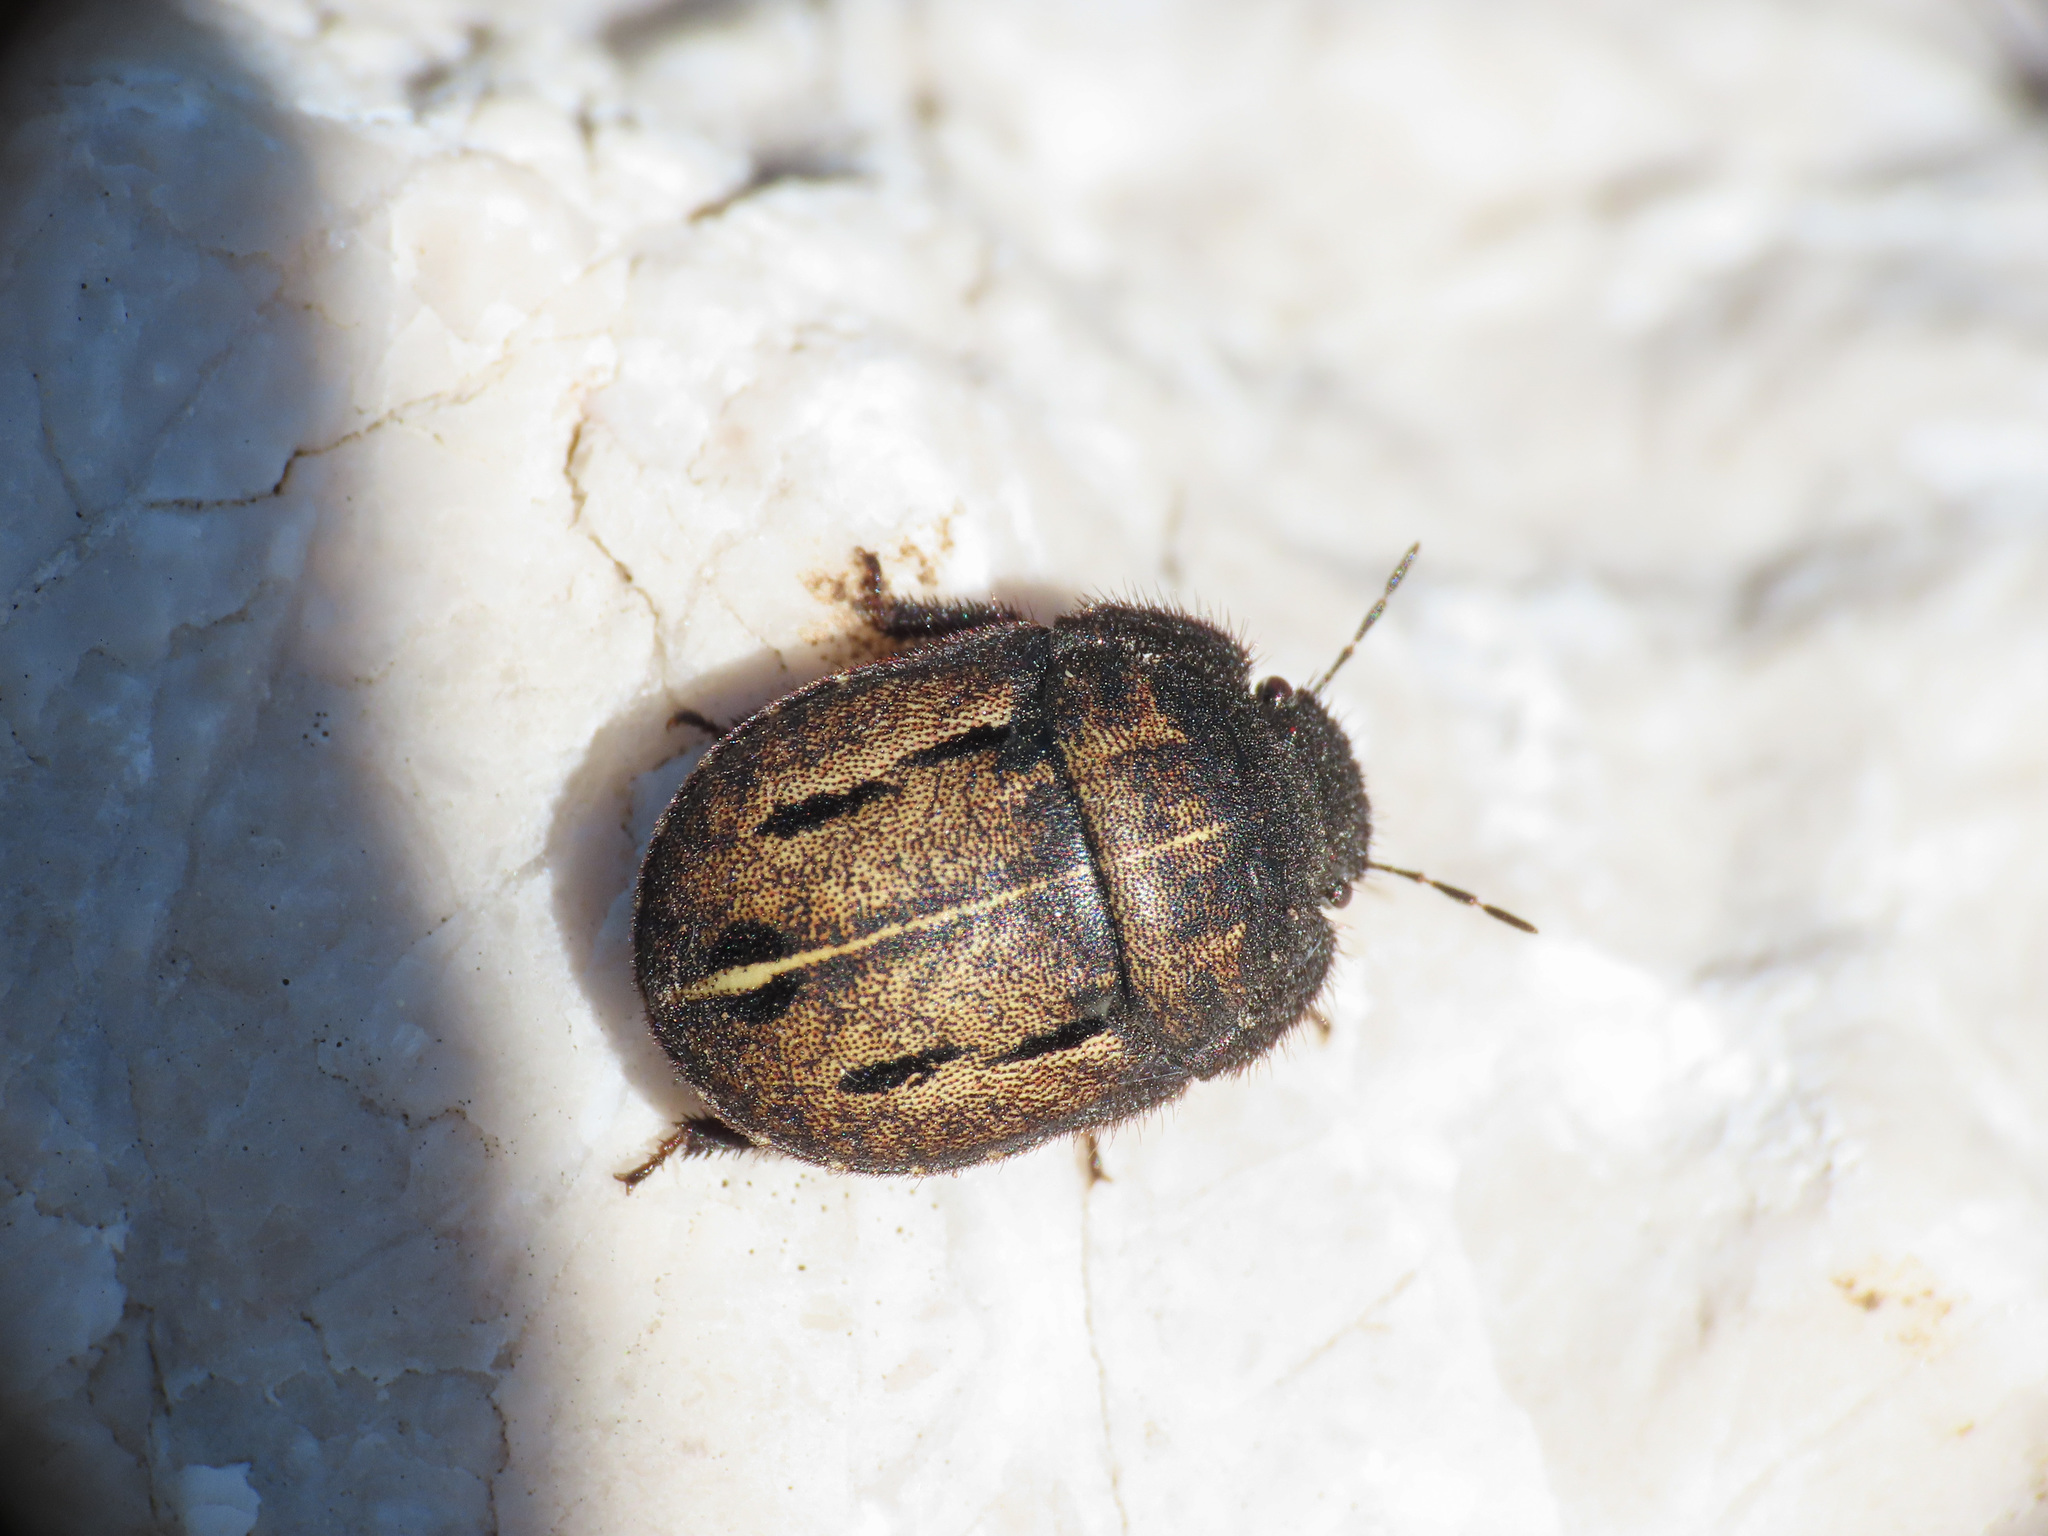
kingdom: Animalia
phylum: Arthropoda
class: Insecta
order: Hemiptera
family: Scutelleridae
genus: Odontoscelis
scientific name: Odontoscelis fuliginosa
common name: Greater streaked shieldbug
